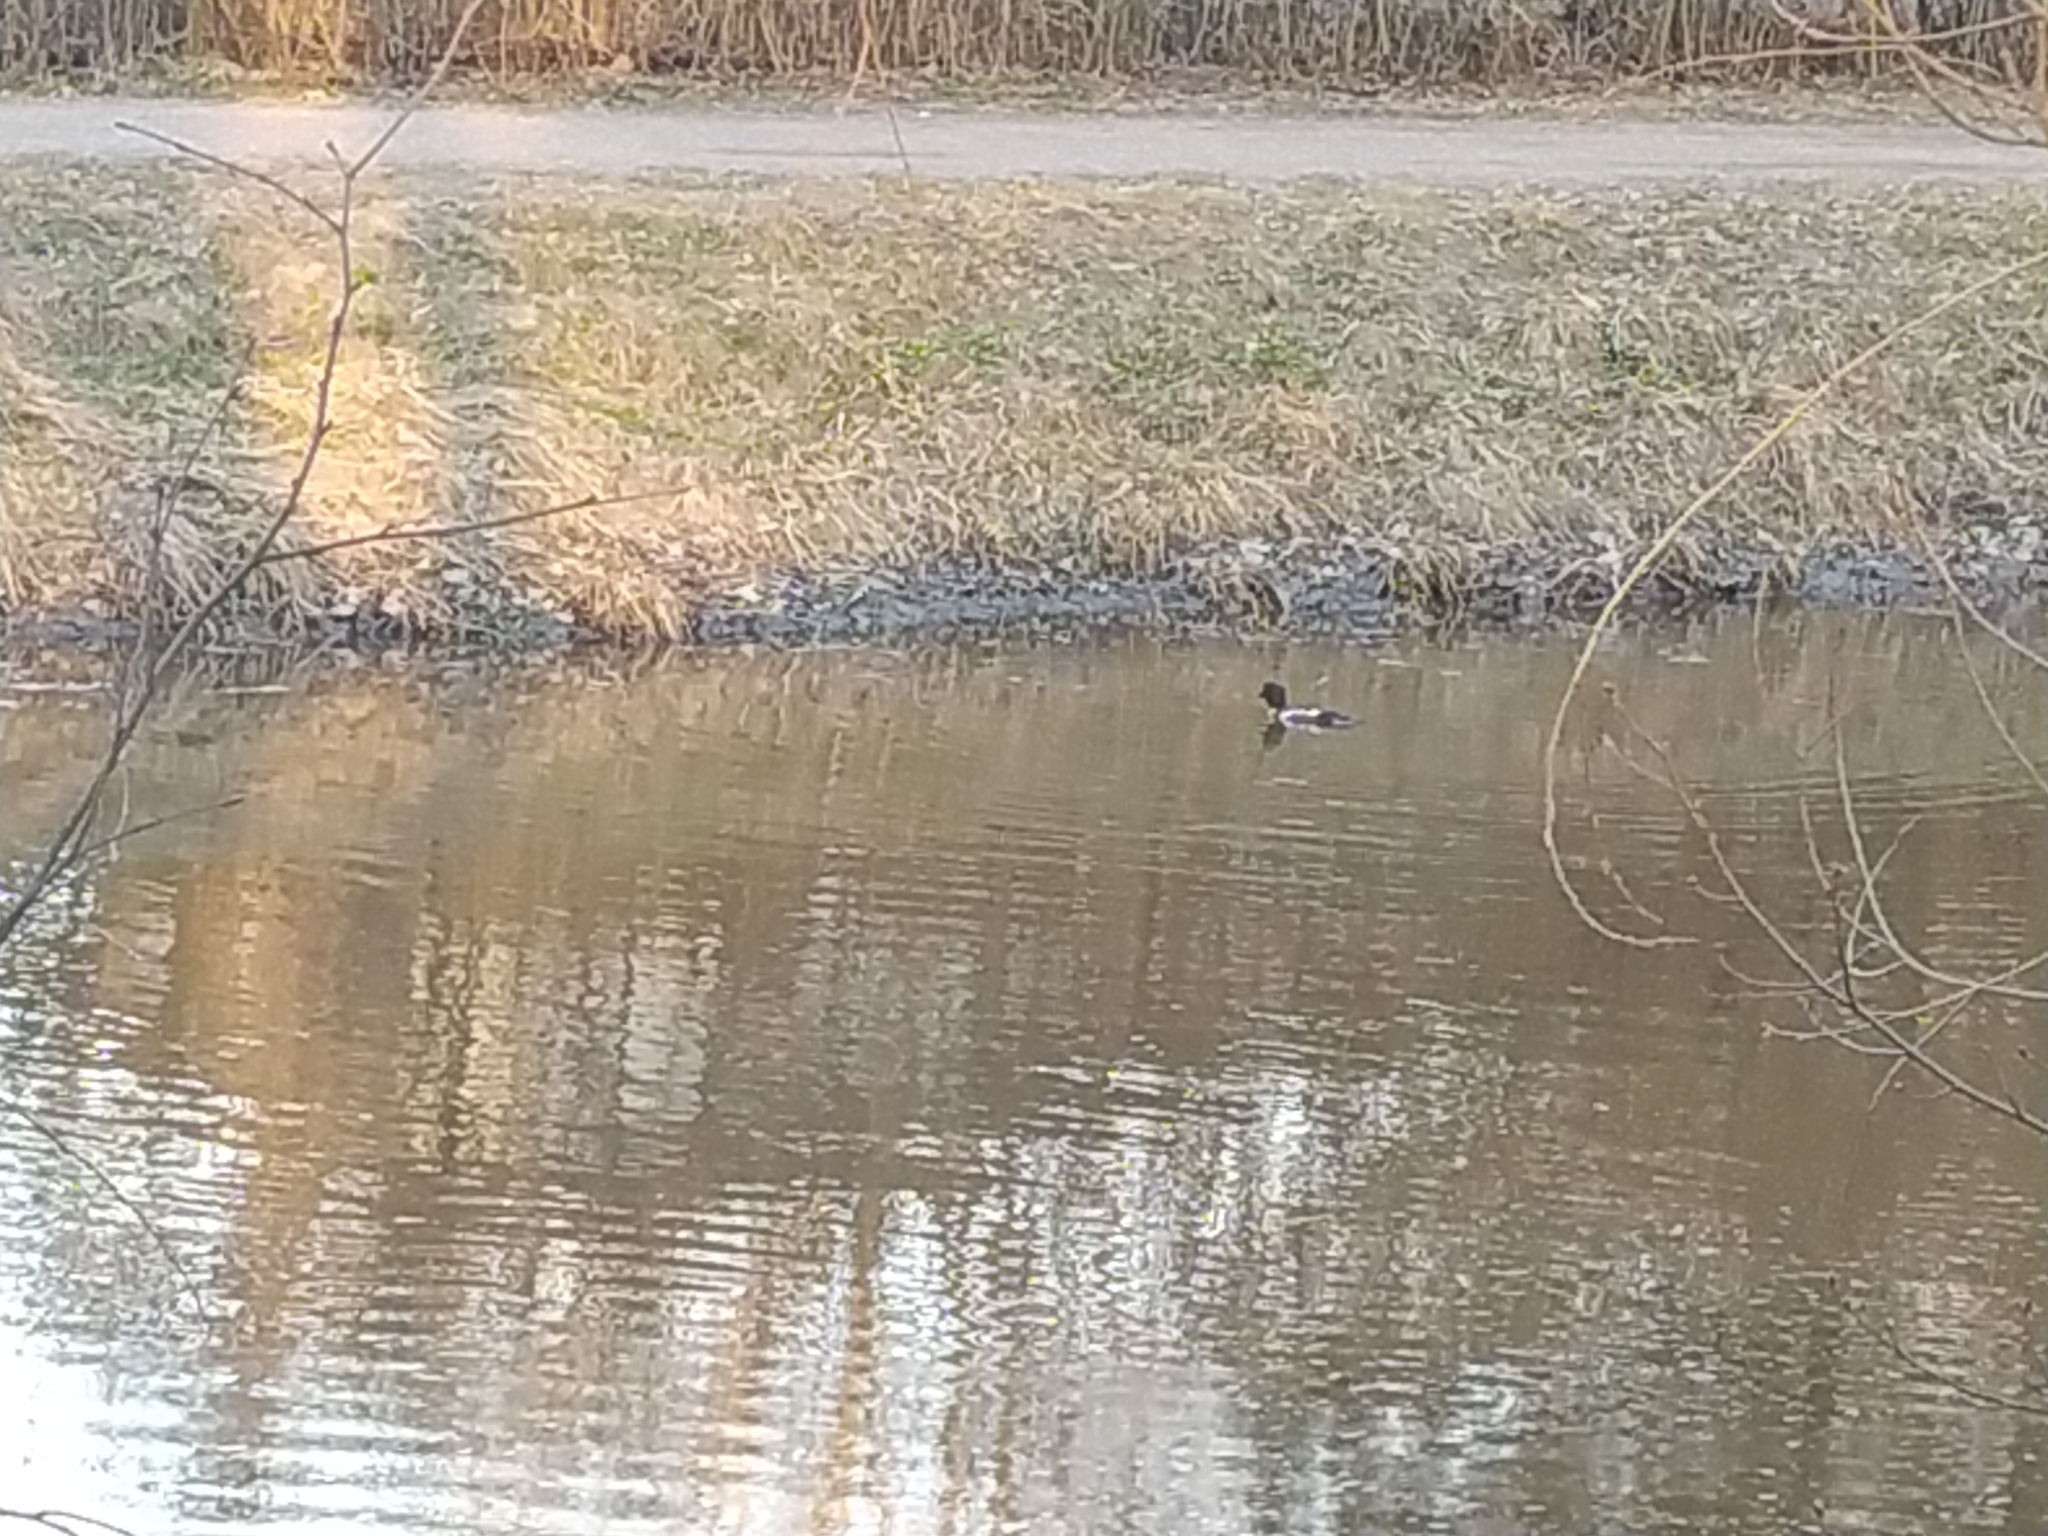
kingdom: Animalia
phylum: Chordata
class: Aves
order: Anseriformes
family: Anatidae
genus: Bucephala
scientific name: Bucephala clangula
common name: Common goldeneye
